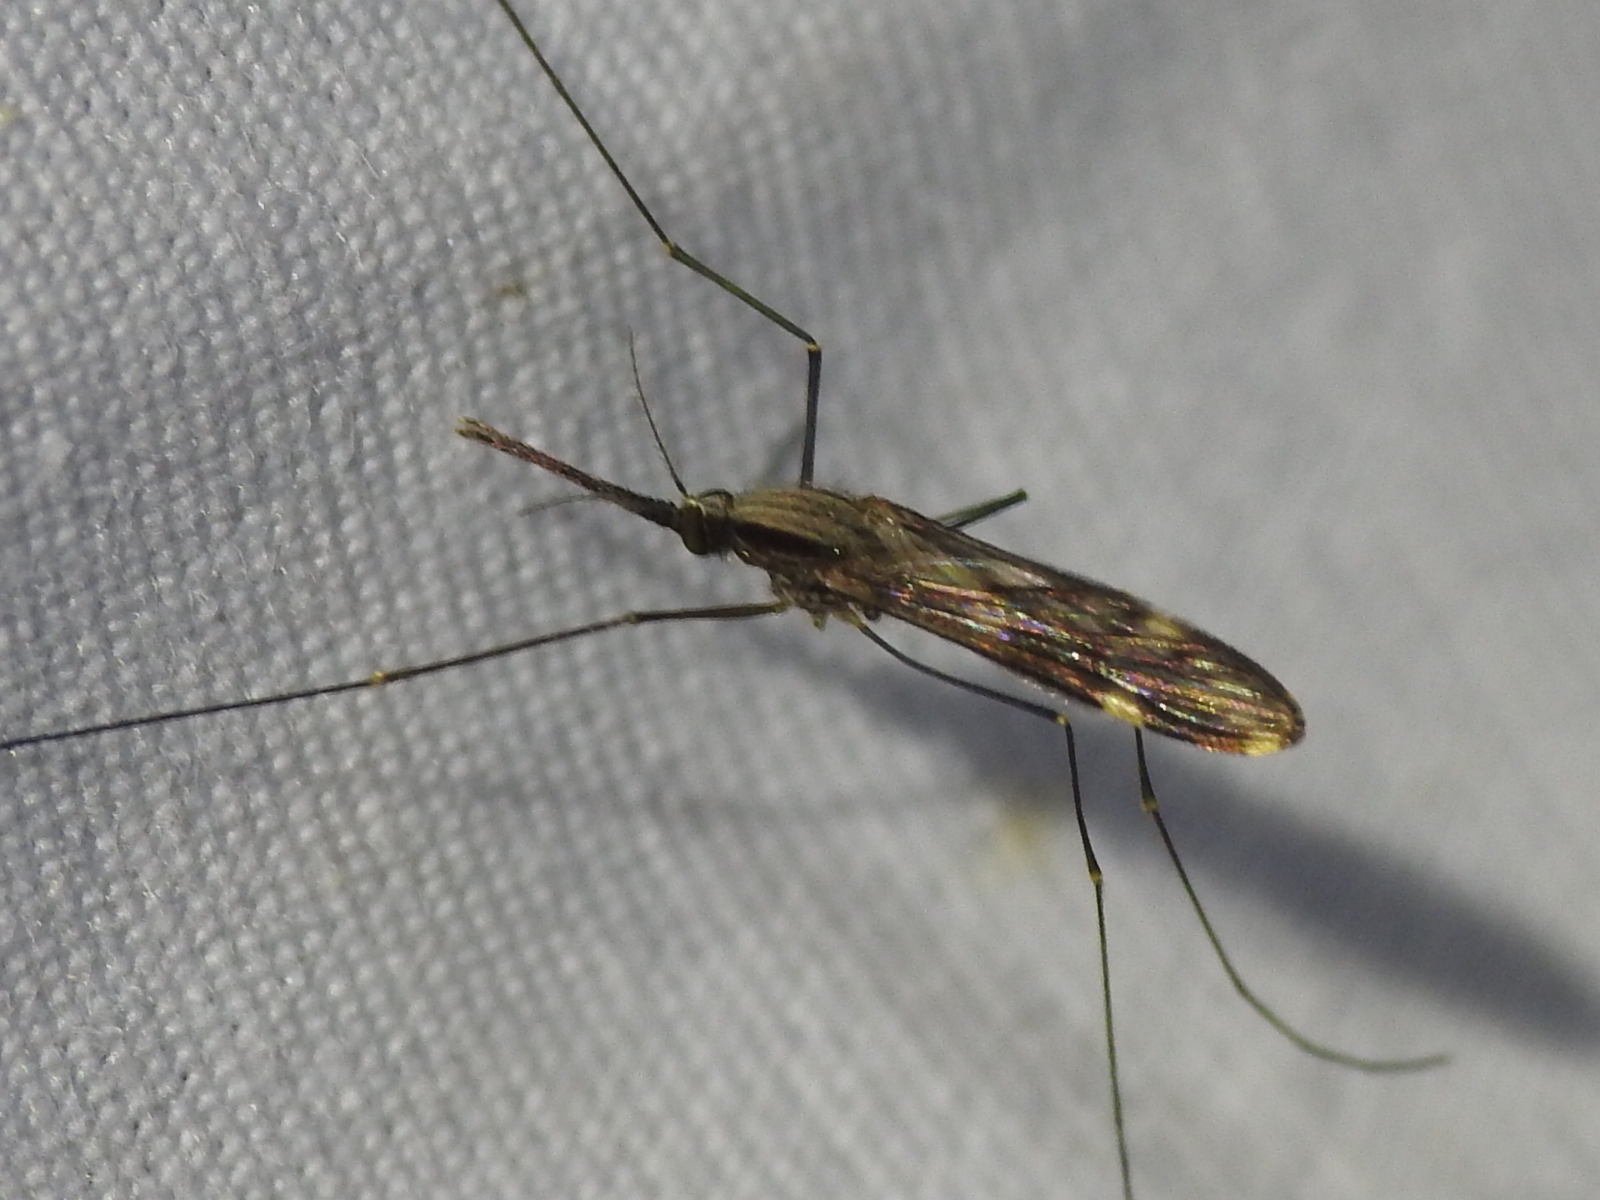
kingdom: Animalia
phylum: Arthropoda
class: Insecta
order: Diptera
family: Culicidae
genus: Anopheles
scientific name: Anopheles punctipennis
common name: Woodland malaria mosquito
